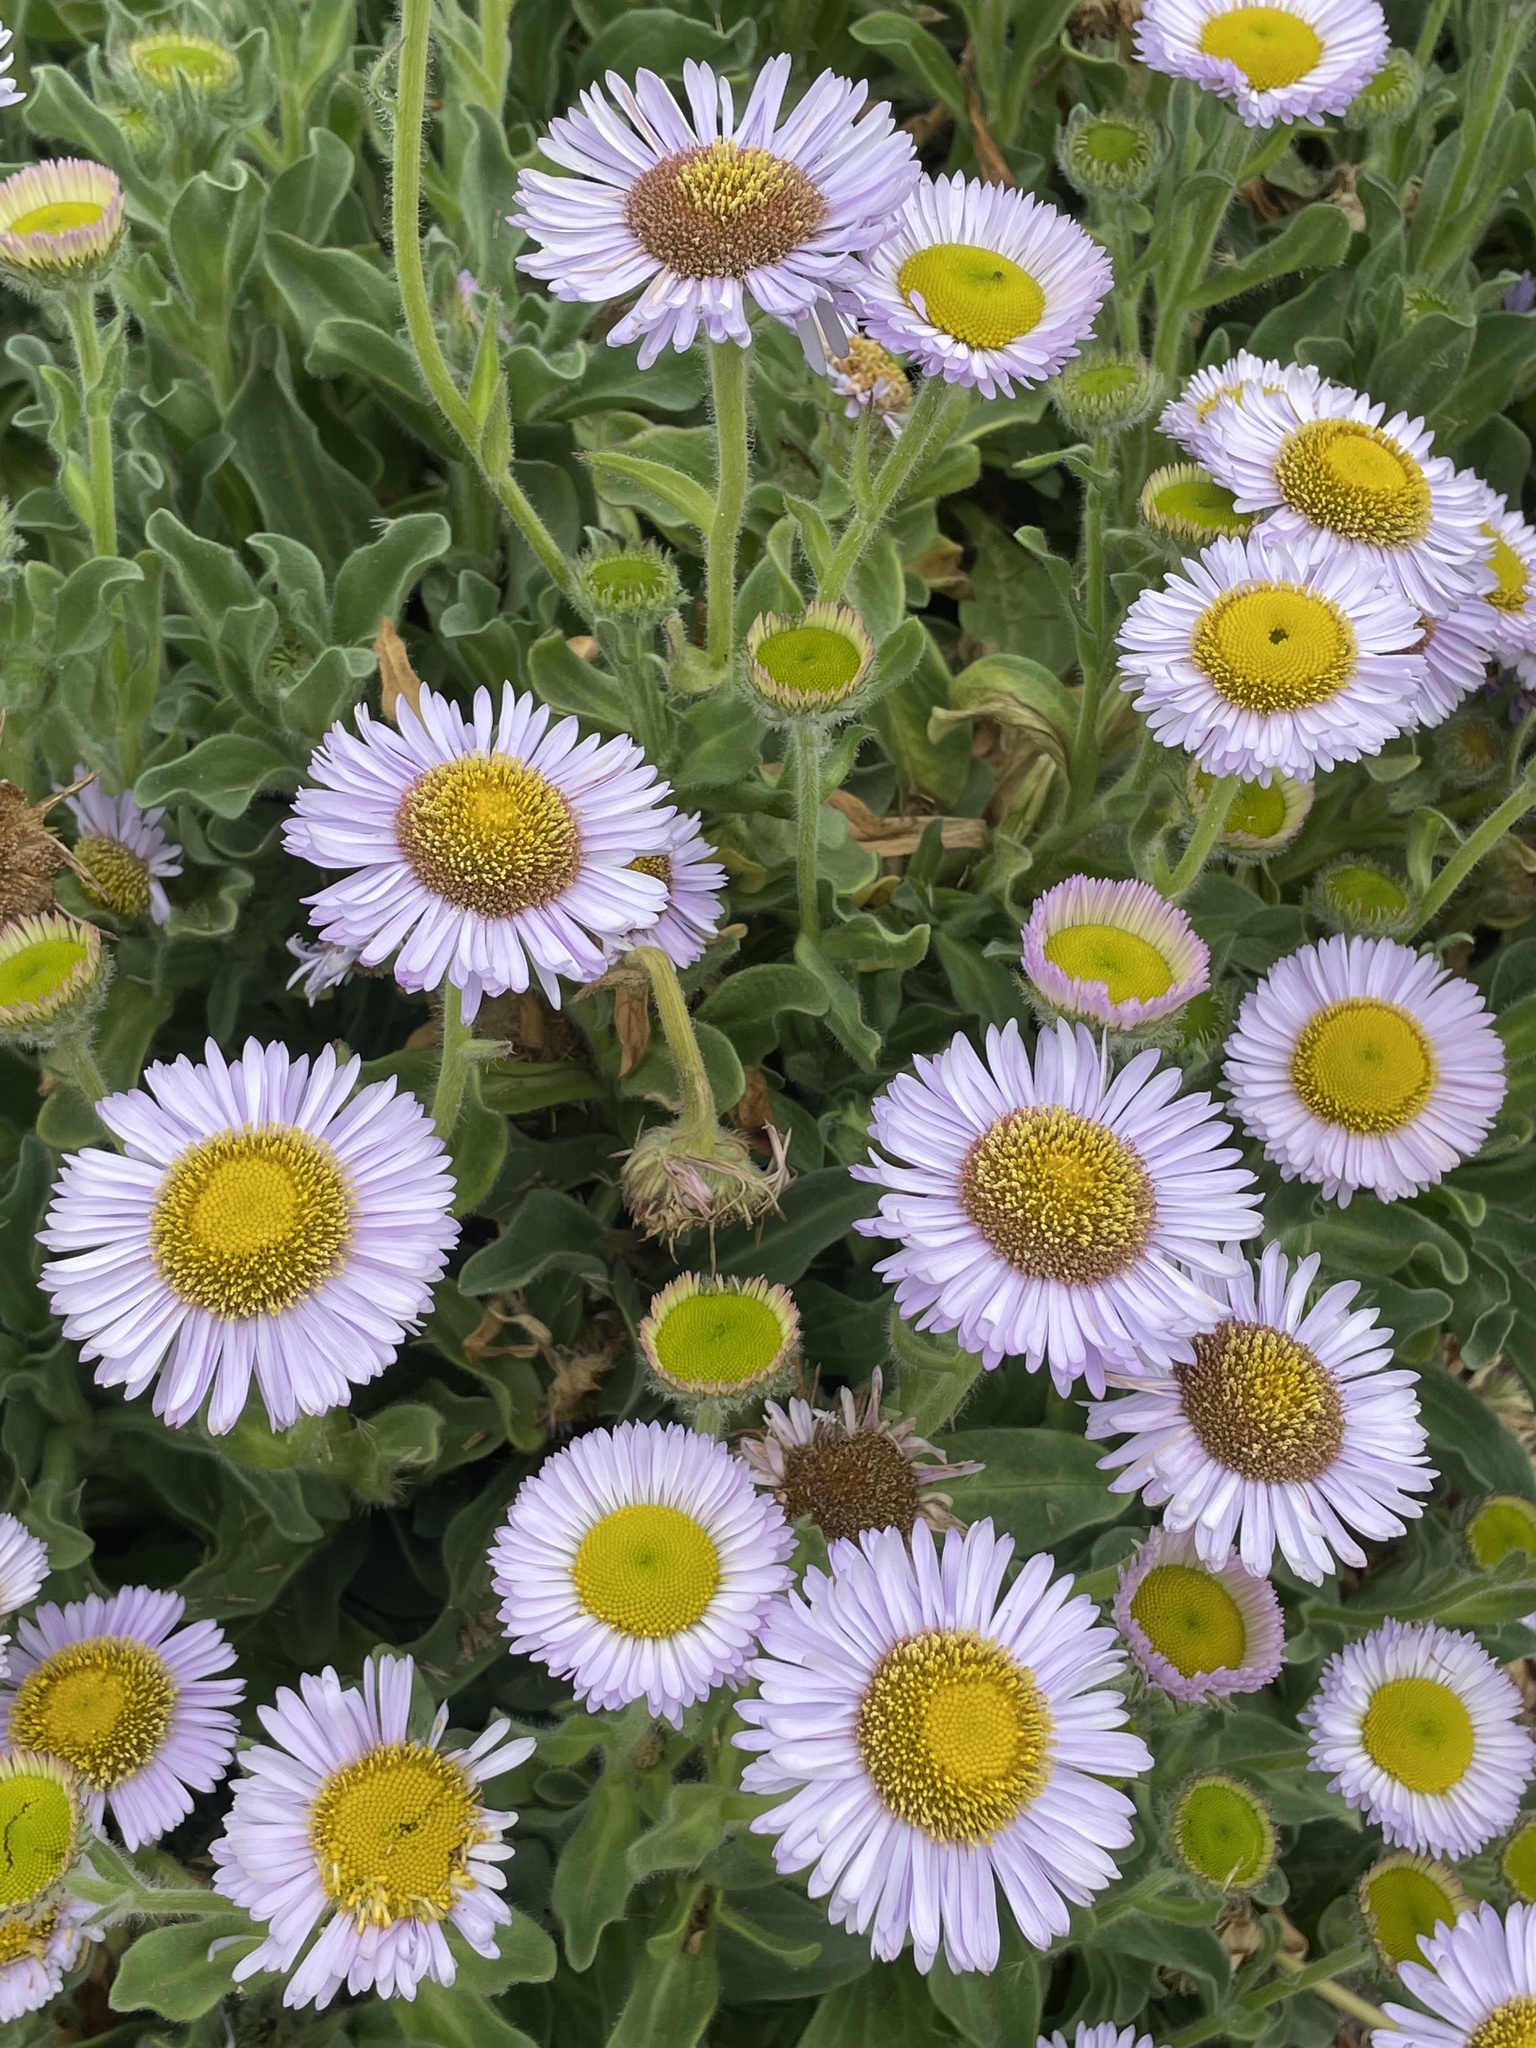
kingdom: Plantae
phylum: Tracheophyta
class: Magnoliopsida
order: Asterales
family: Asteraceae
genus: Erigeron
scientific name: Erigeron glaucus
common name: Seaside daisy
